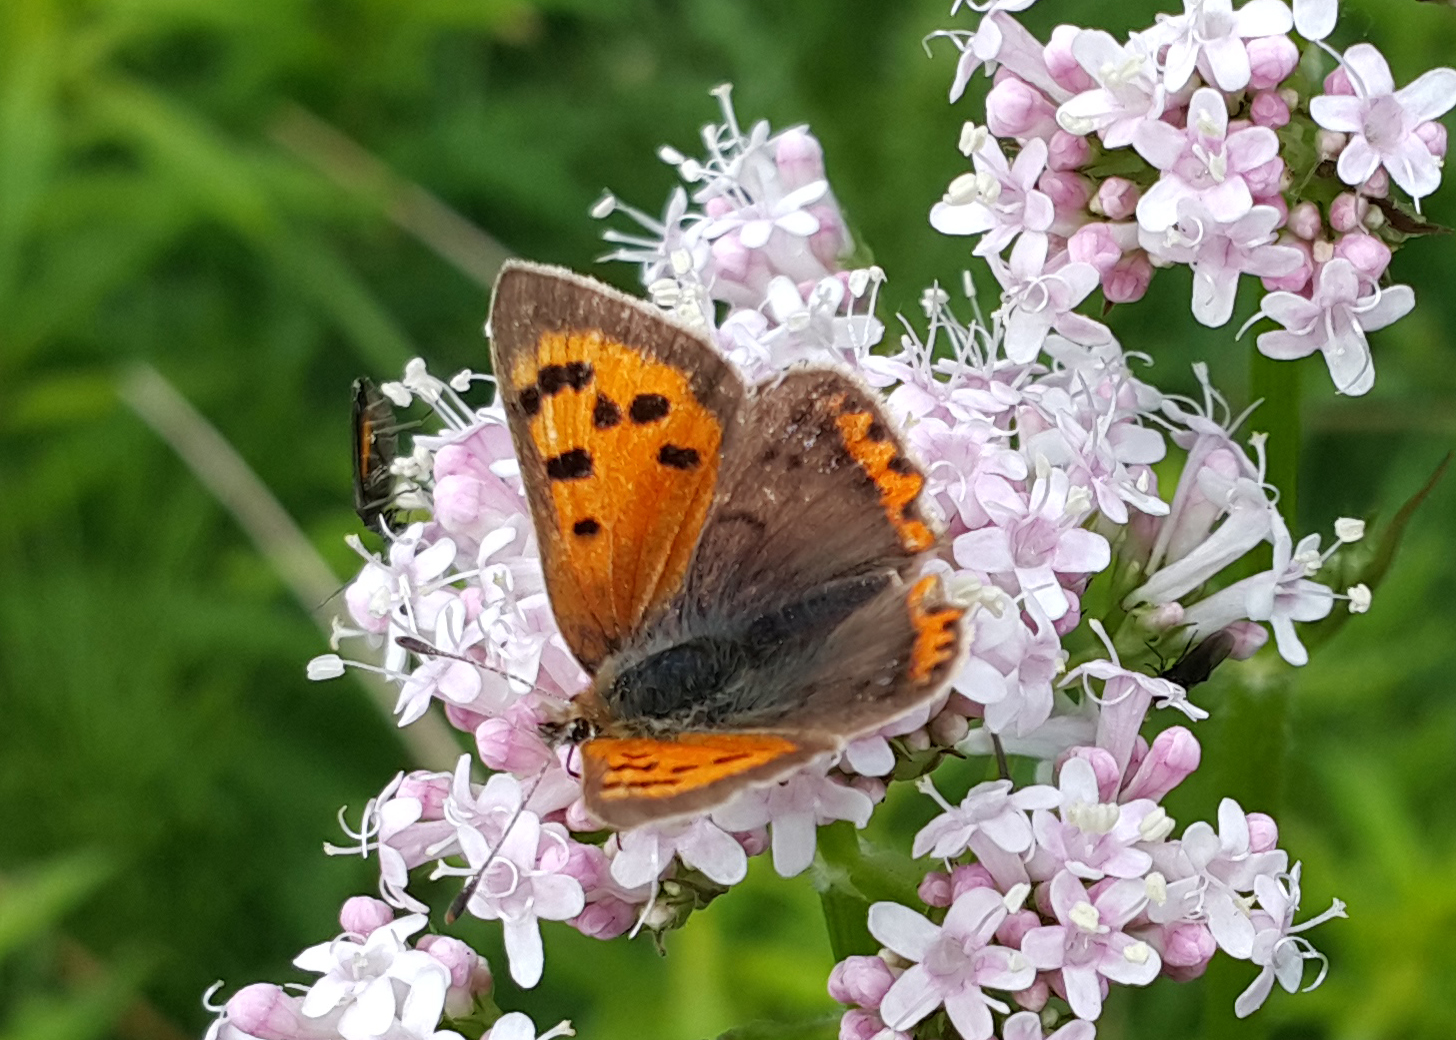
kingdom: Animalia
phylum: Arthropoda
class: Insecta
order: Lepidoptera
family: Lycaenidae
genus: Lycaena
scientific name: Lycaena phlaeas
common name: Small copper
